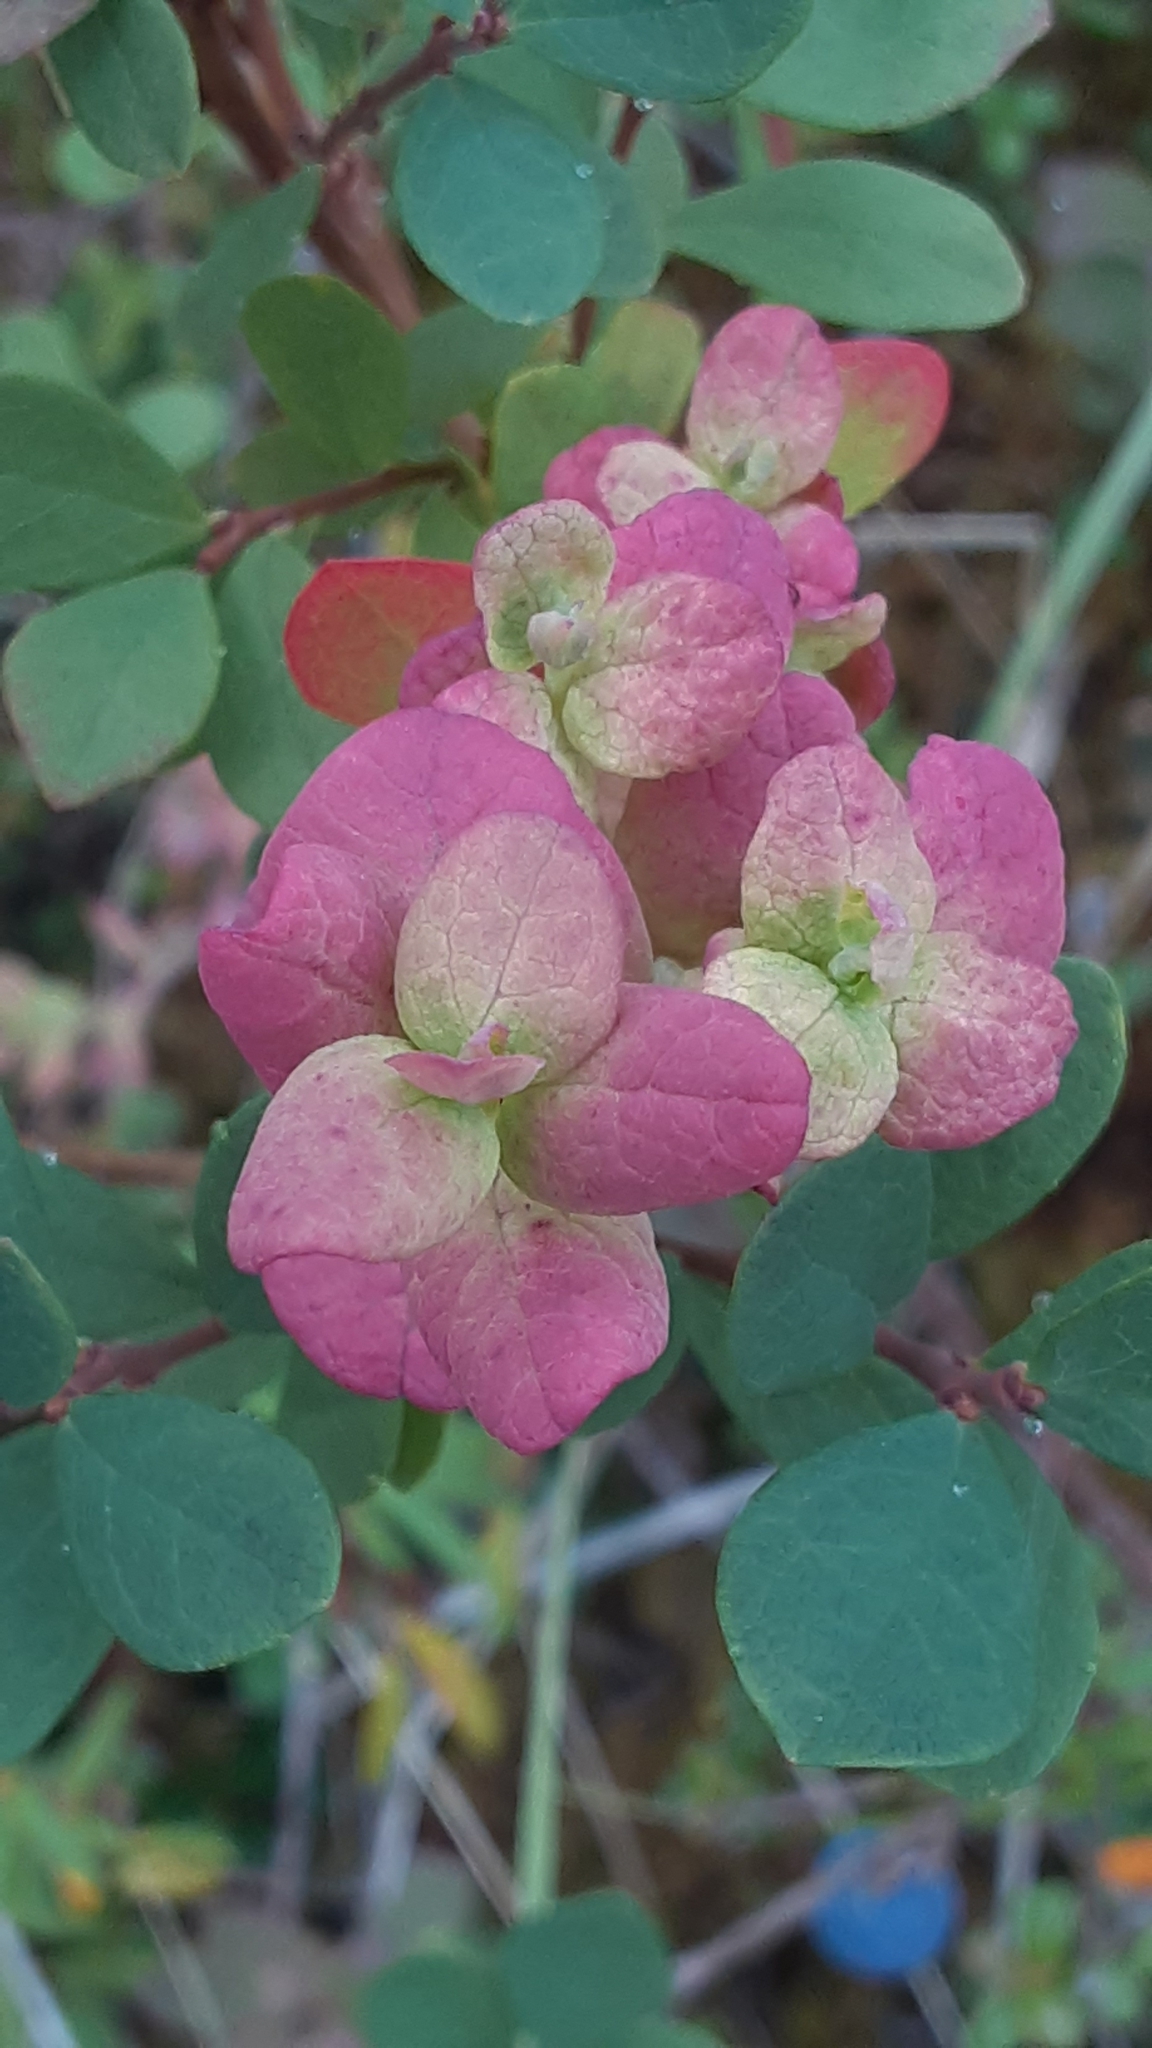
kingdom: Fungi
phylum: Basidiomycota
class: Exobasidiomycetes
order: Exobasidiales
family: Exobasidiaceae
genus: Exobasidium
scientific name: Exobasidium vaccinii-uliginosi
